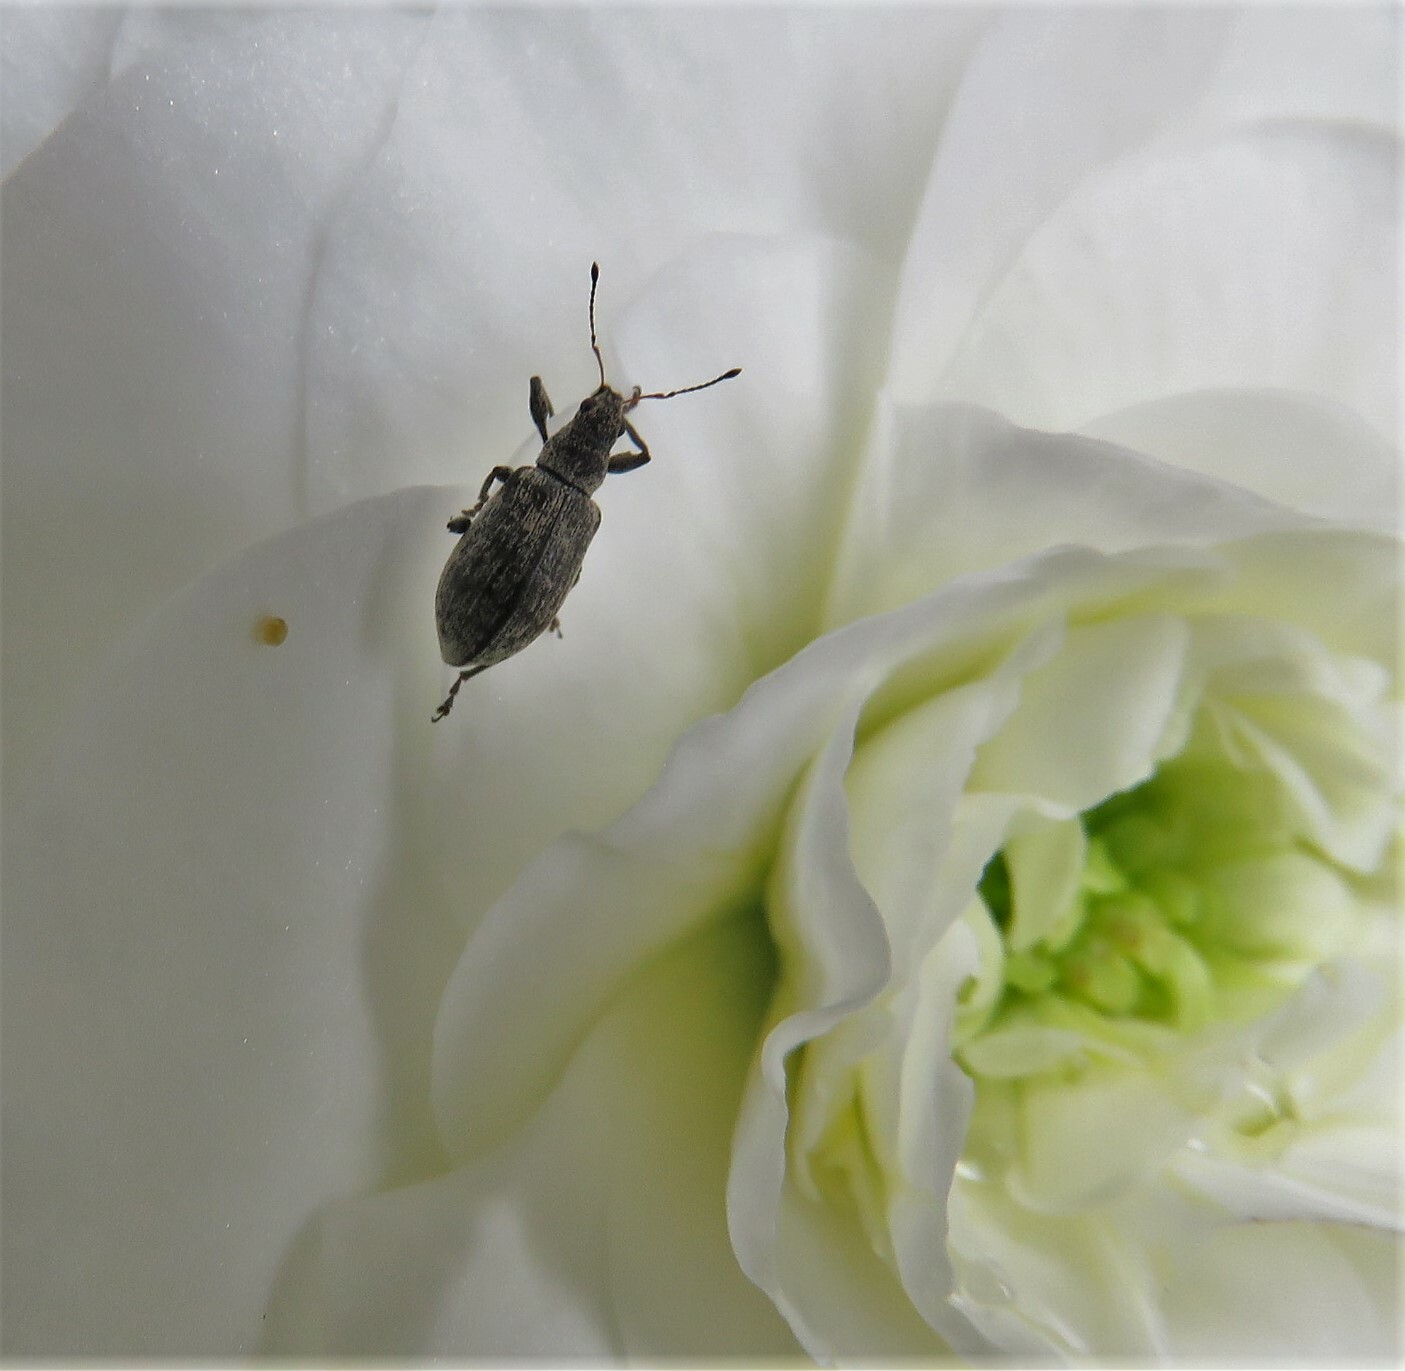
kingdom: Animalia
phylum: Arthropoda
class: Insecta
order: Coleoptera
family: Curculionidae
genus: Polydrusus
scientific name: Polydrusus cervinus
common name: Weevil
